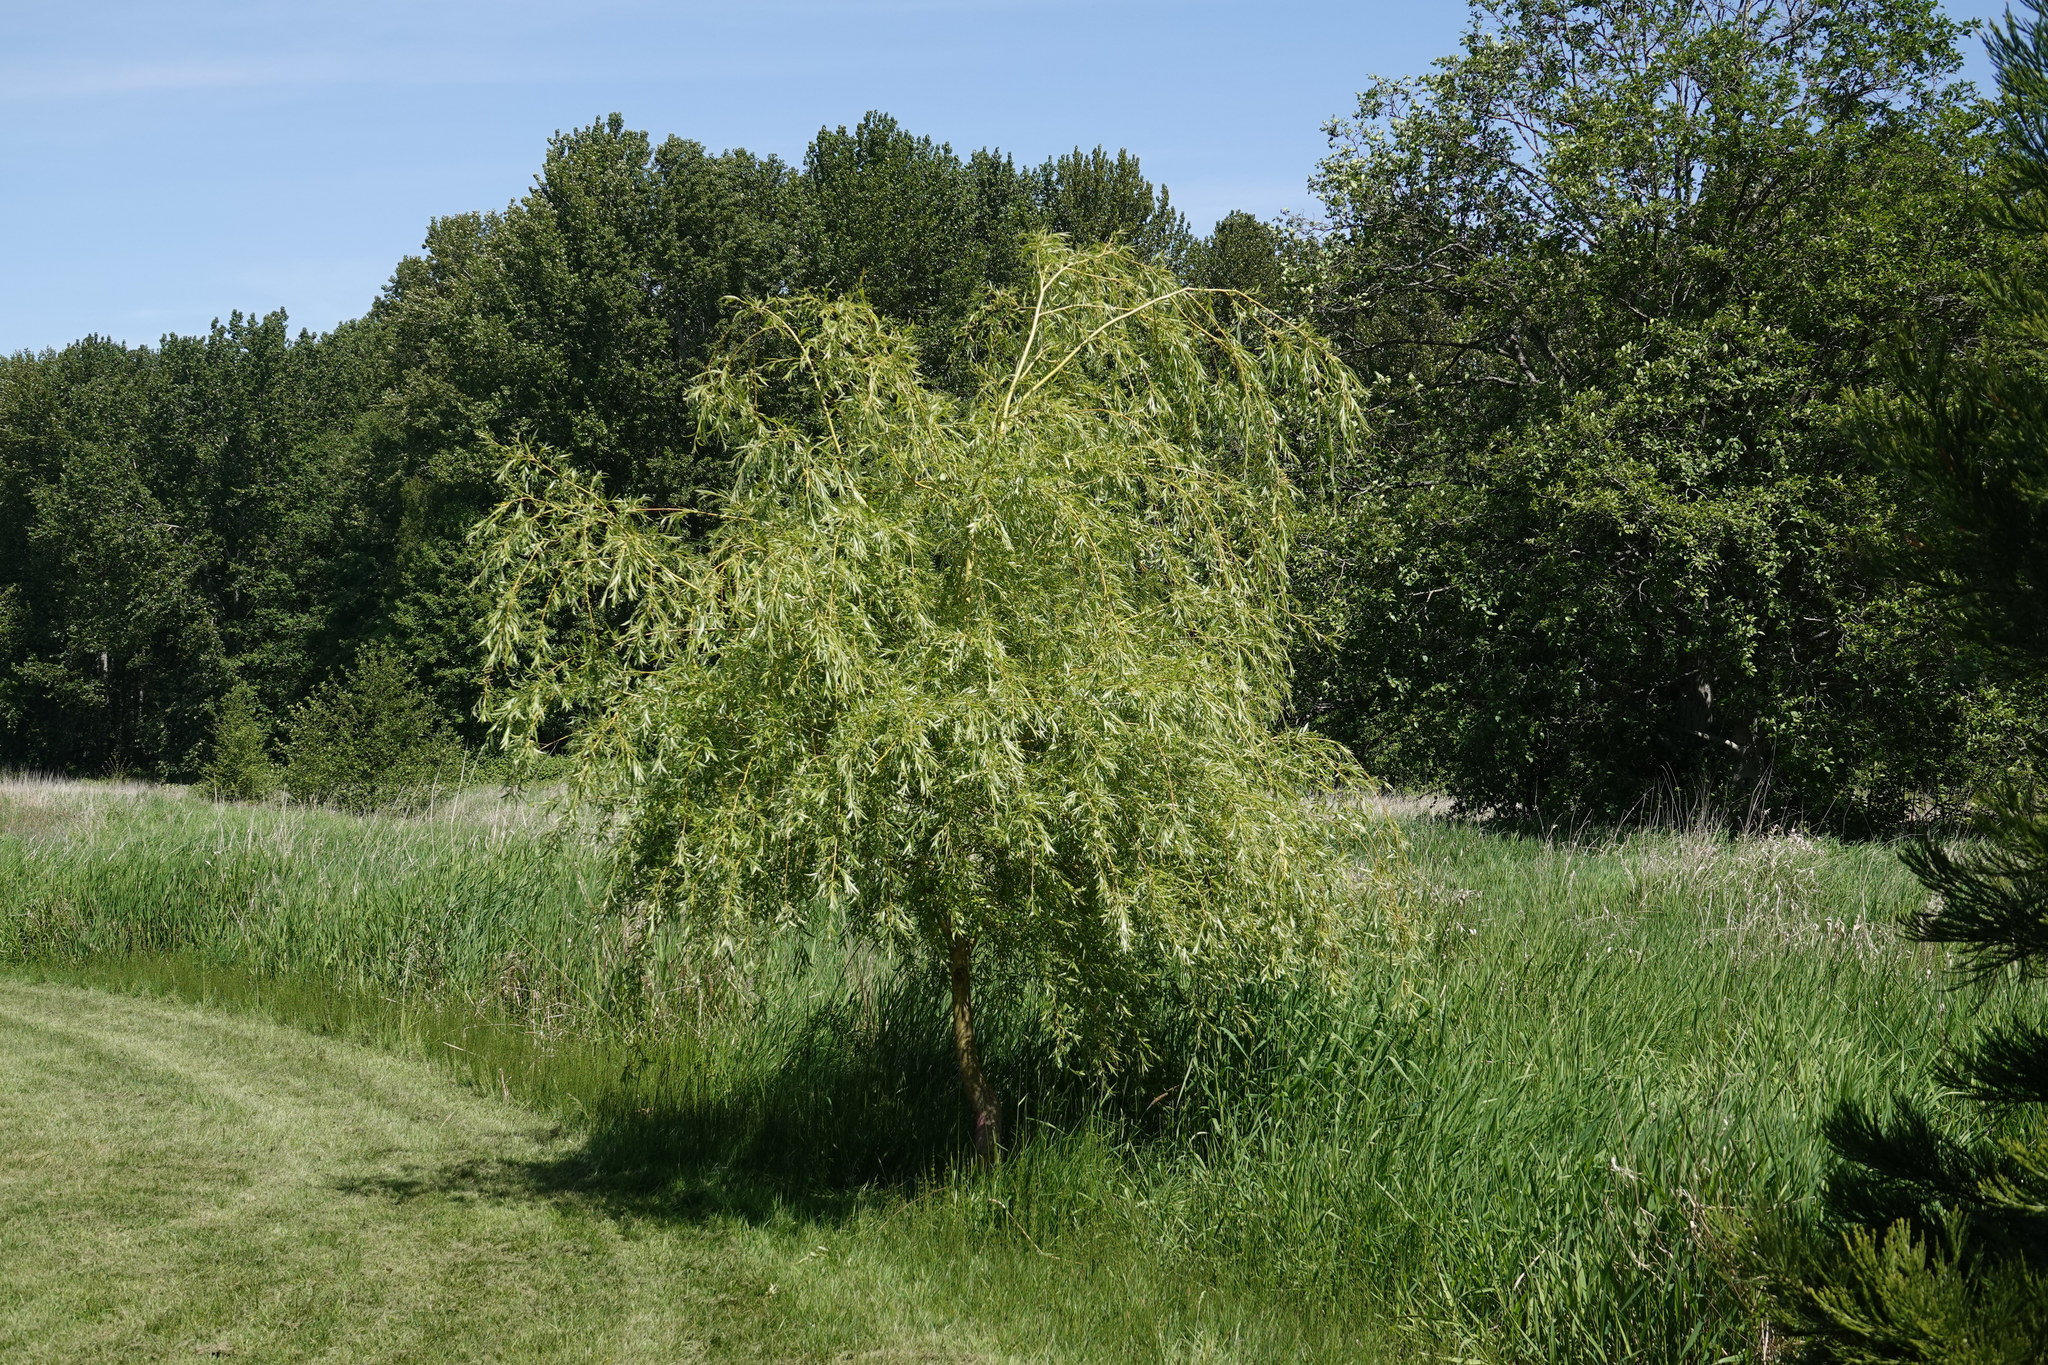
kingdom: Plantae
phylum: Tracheophyta
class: Magnoliopsida
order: Malpighiales
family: Salicaceae
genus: Salix
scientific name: Salix pendulina
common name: Wisconsin weeping willow
